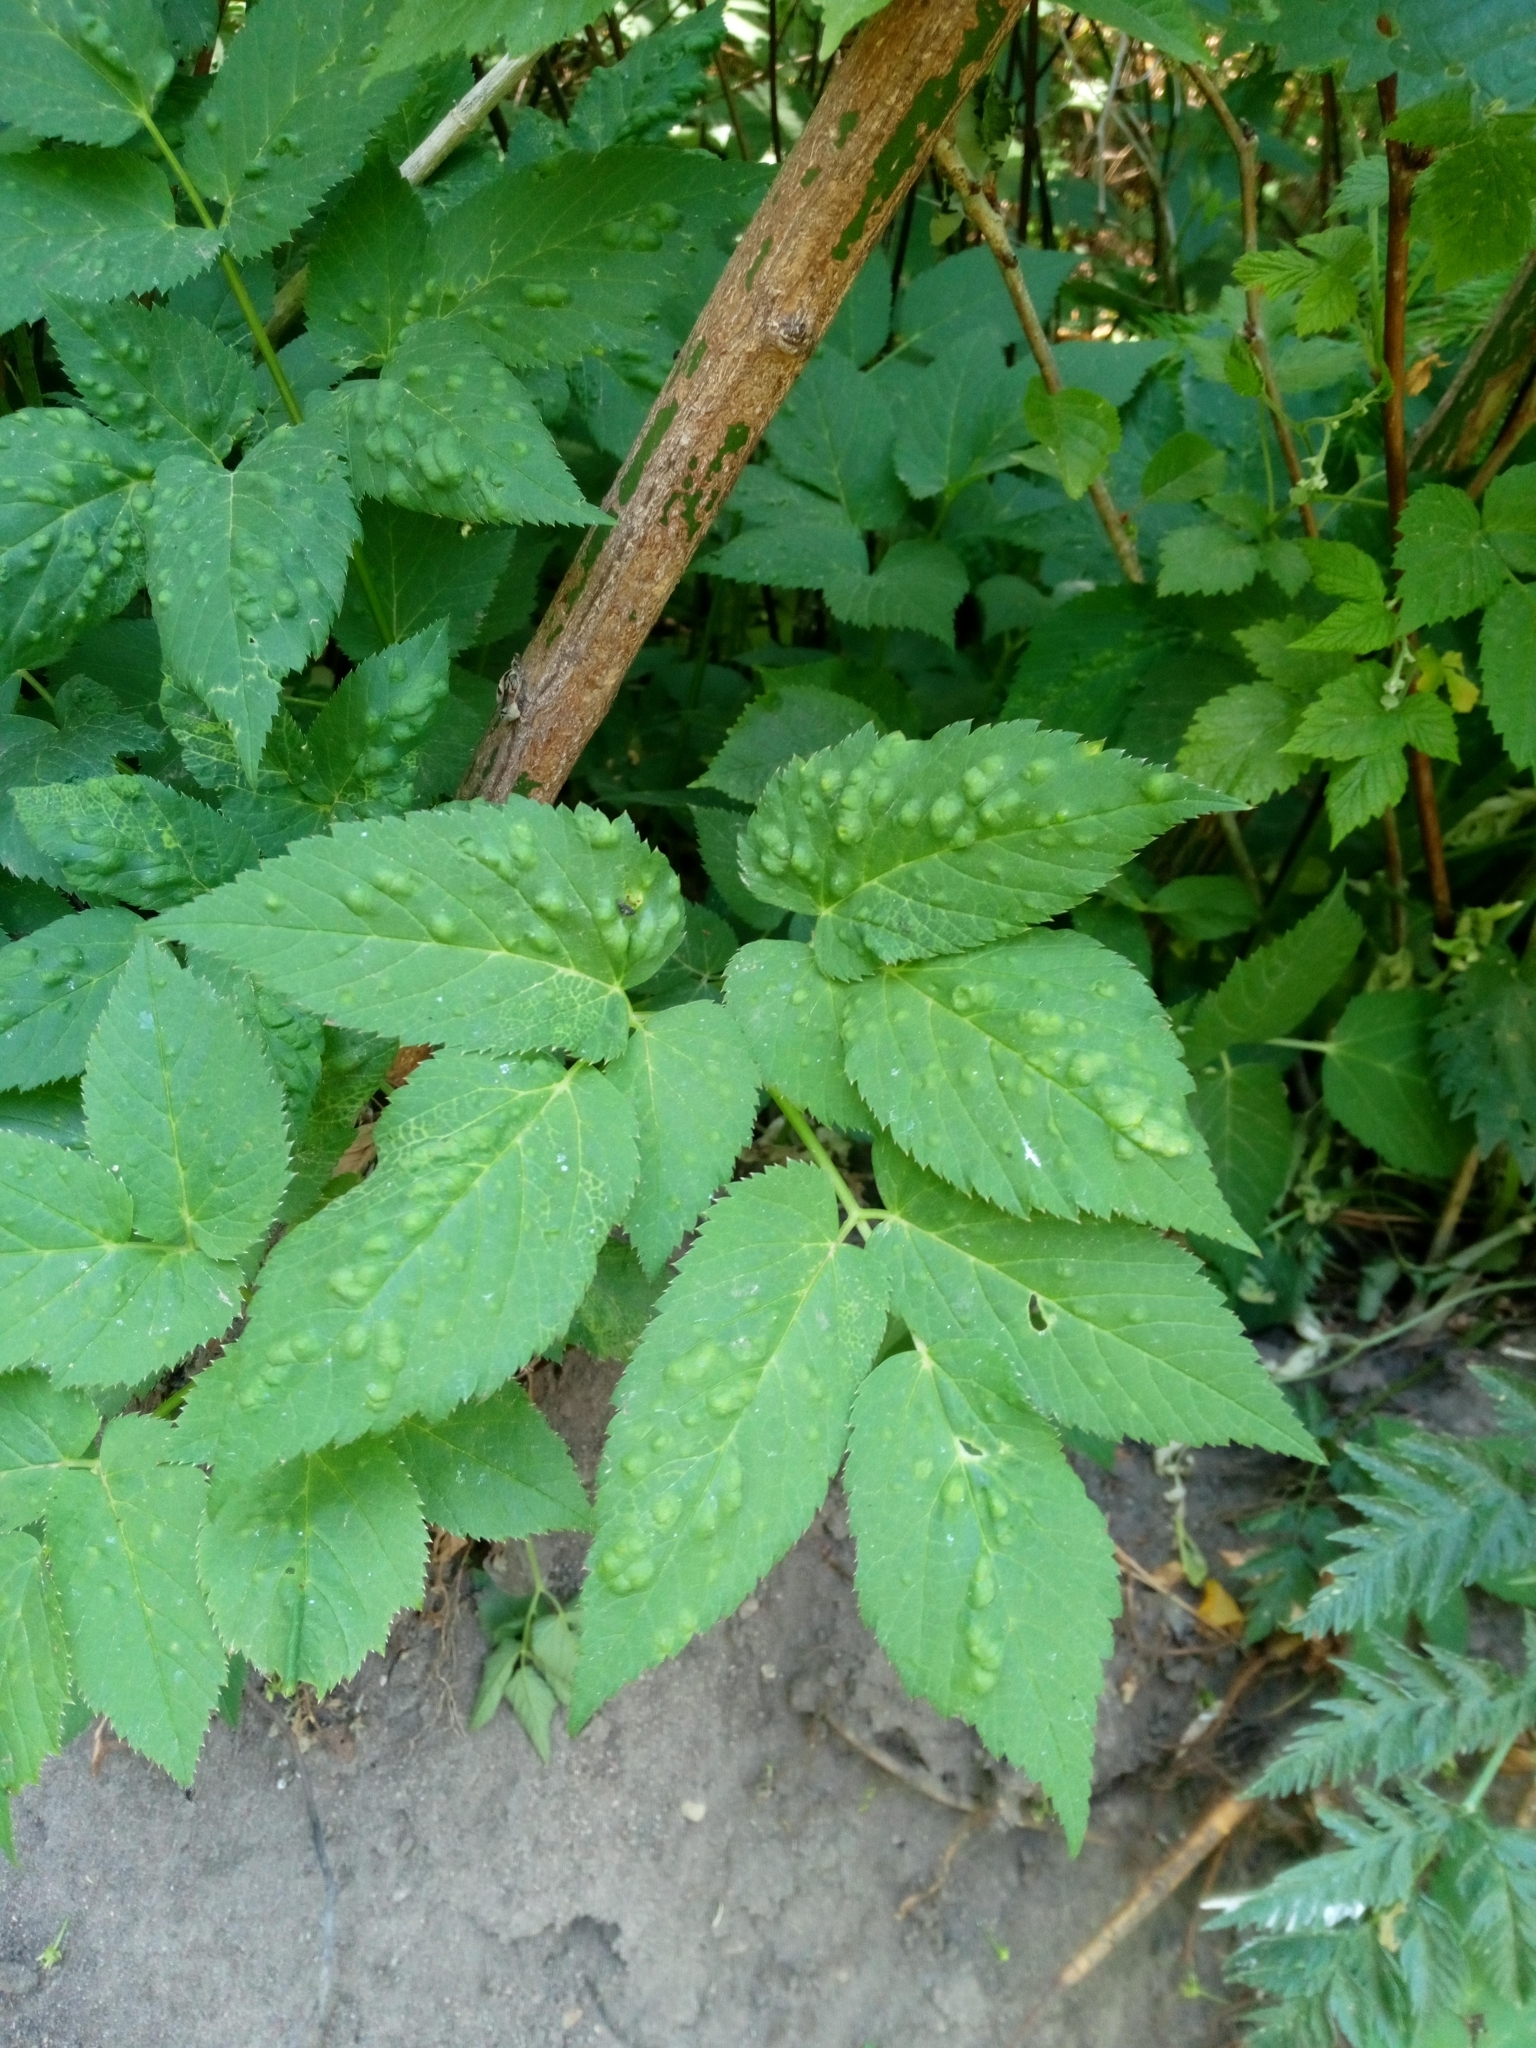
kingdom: Plantae
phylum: Tracheophyta
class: Magnoliopsida
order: Apiales
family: Apiaceae
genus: Aegopodium
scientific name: Aegopodium podagraria
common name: Ground-elder
